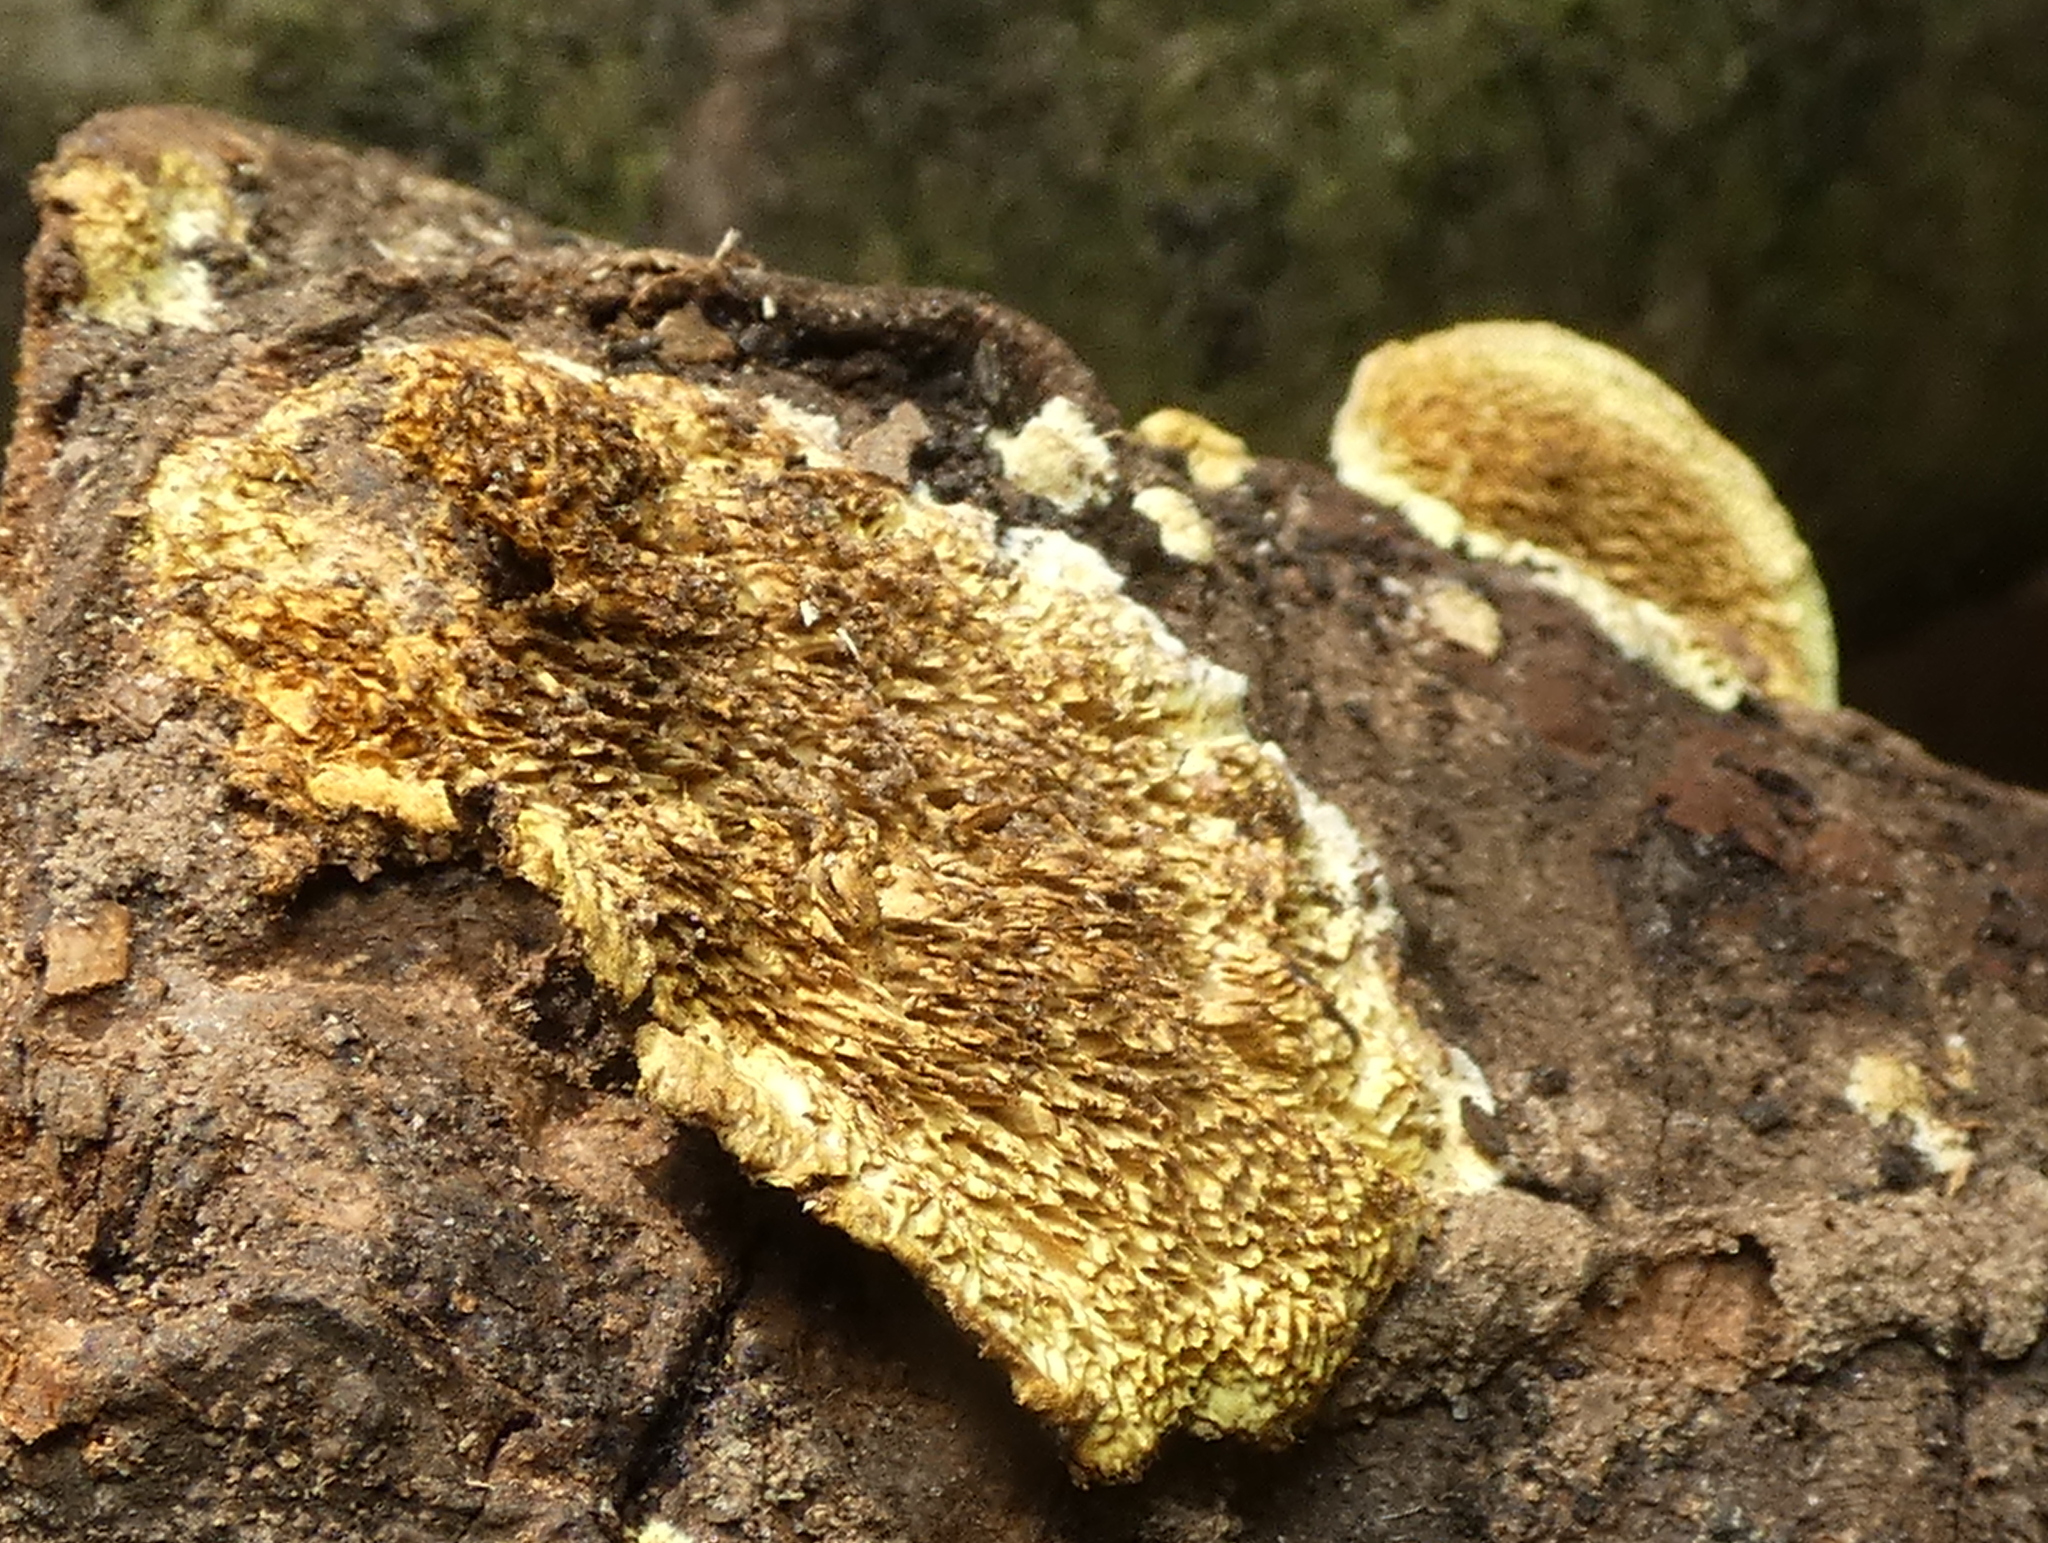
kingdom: Fungi
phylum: Basidiomycota
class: Agaricomycetes
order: Polyporales
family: Irpicaceae
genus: Flavodon
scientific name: Flavodon flavus
